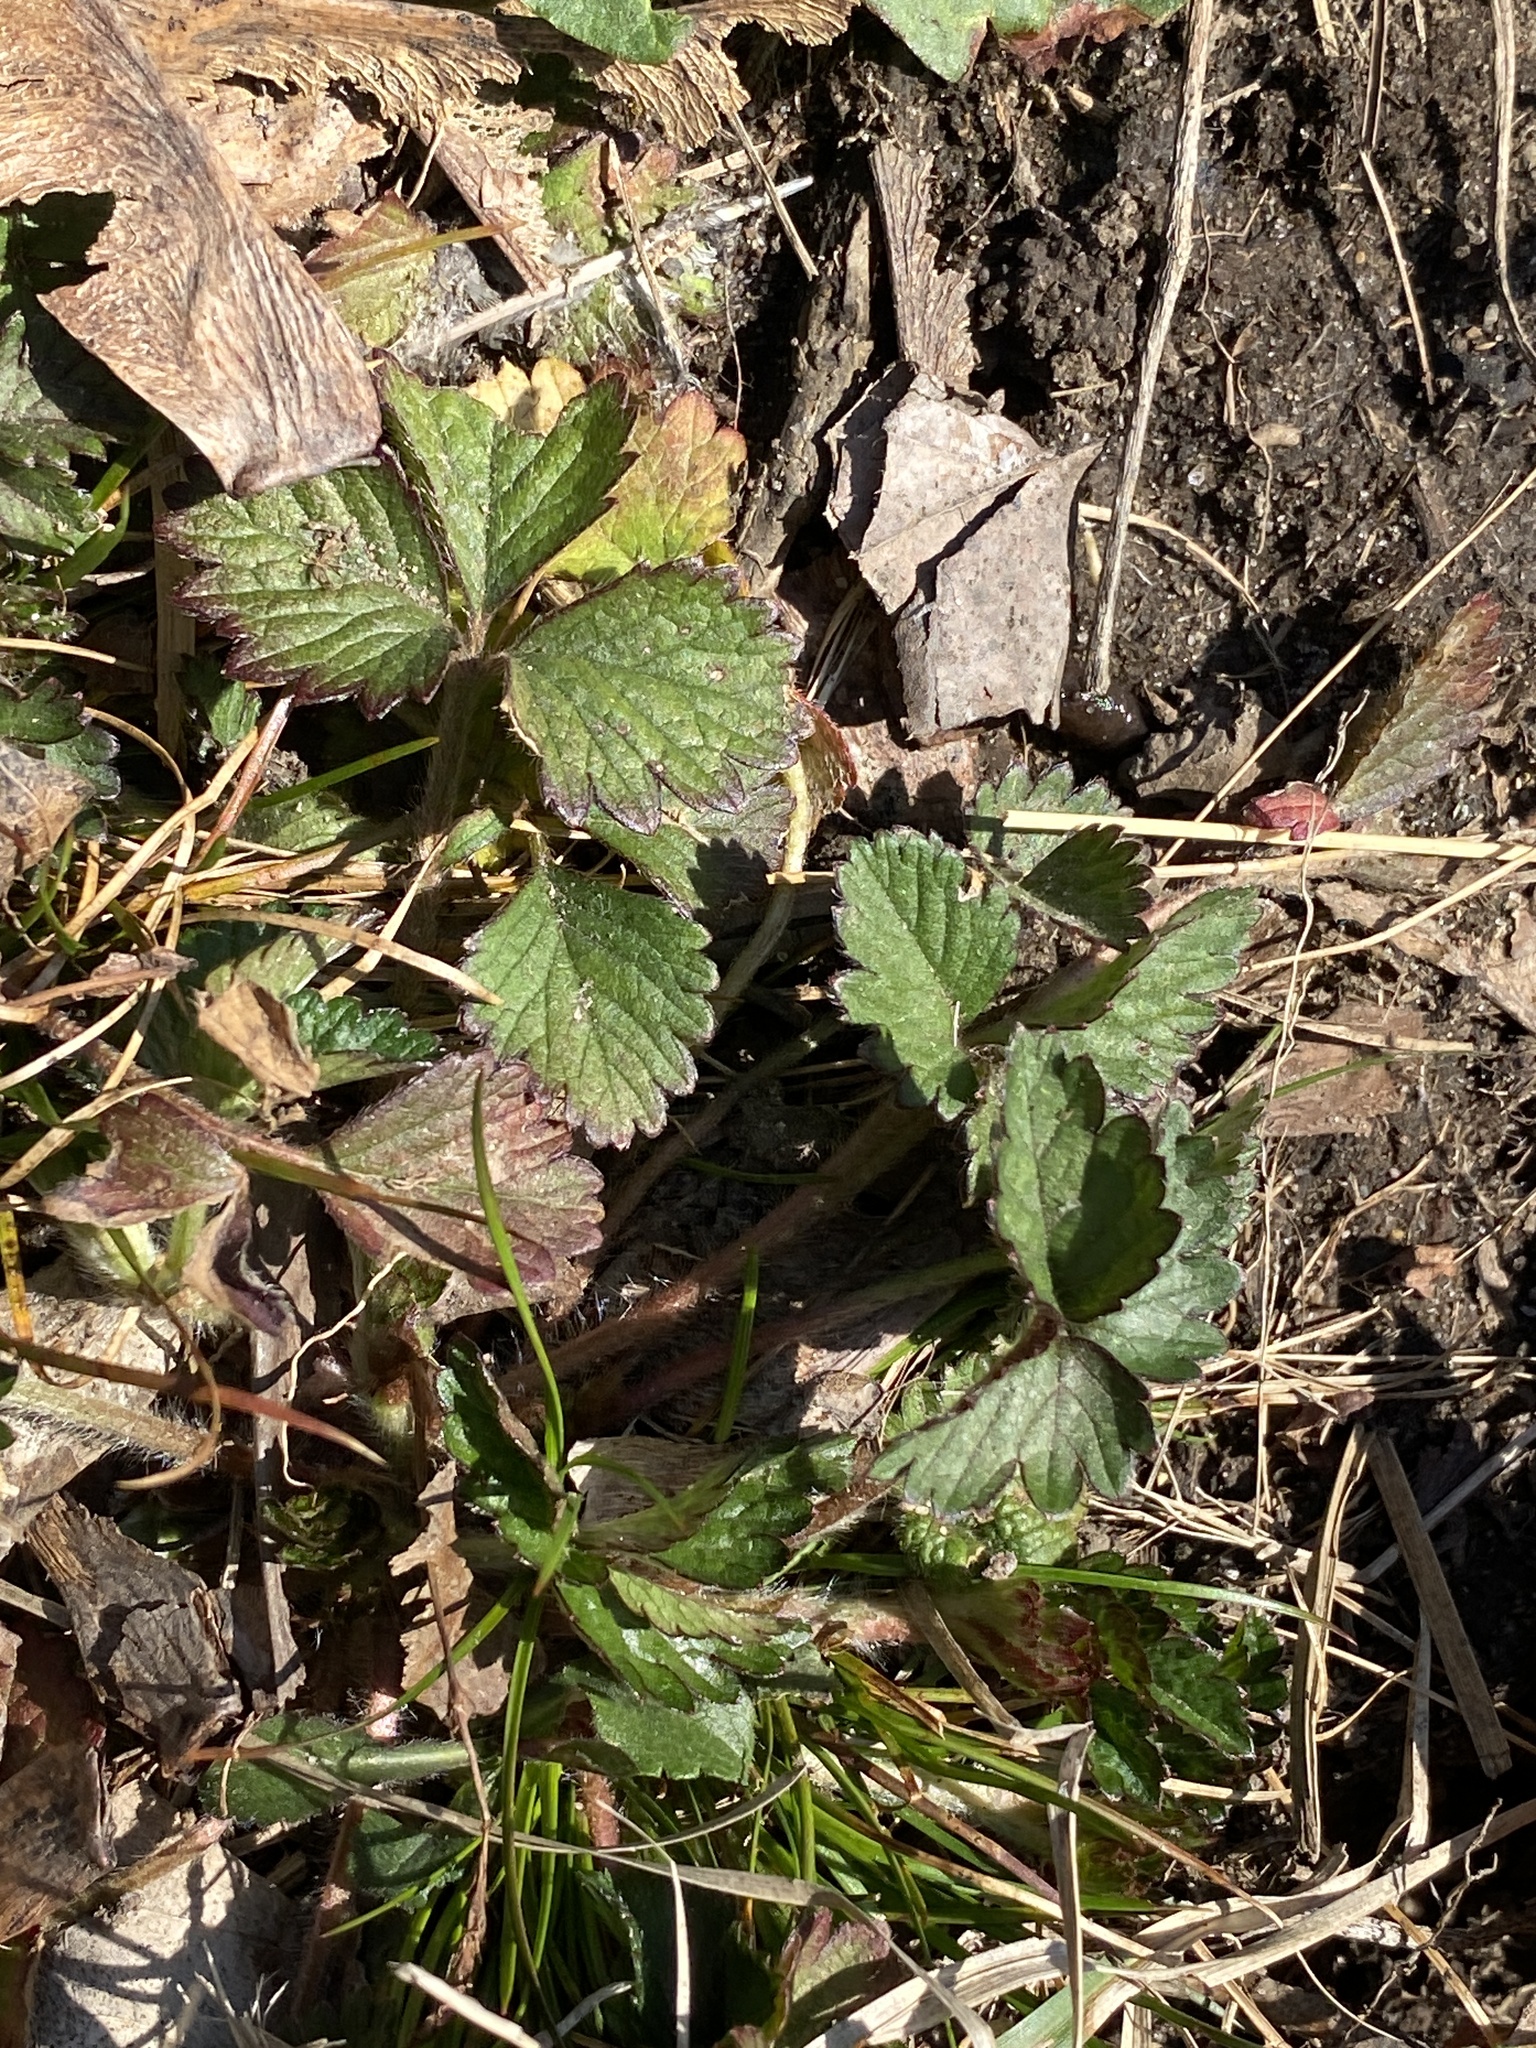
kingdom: Plantae
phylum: Tracheophyta
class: Magnoliopsida
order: Rosales
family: Rosaceae
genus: Potentilla
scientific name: Potentilla indica
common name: Yellow-flowered strawberry
